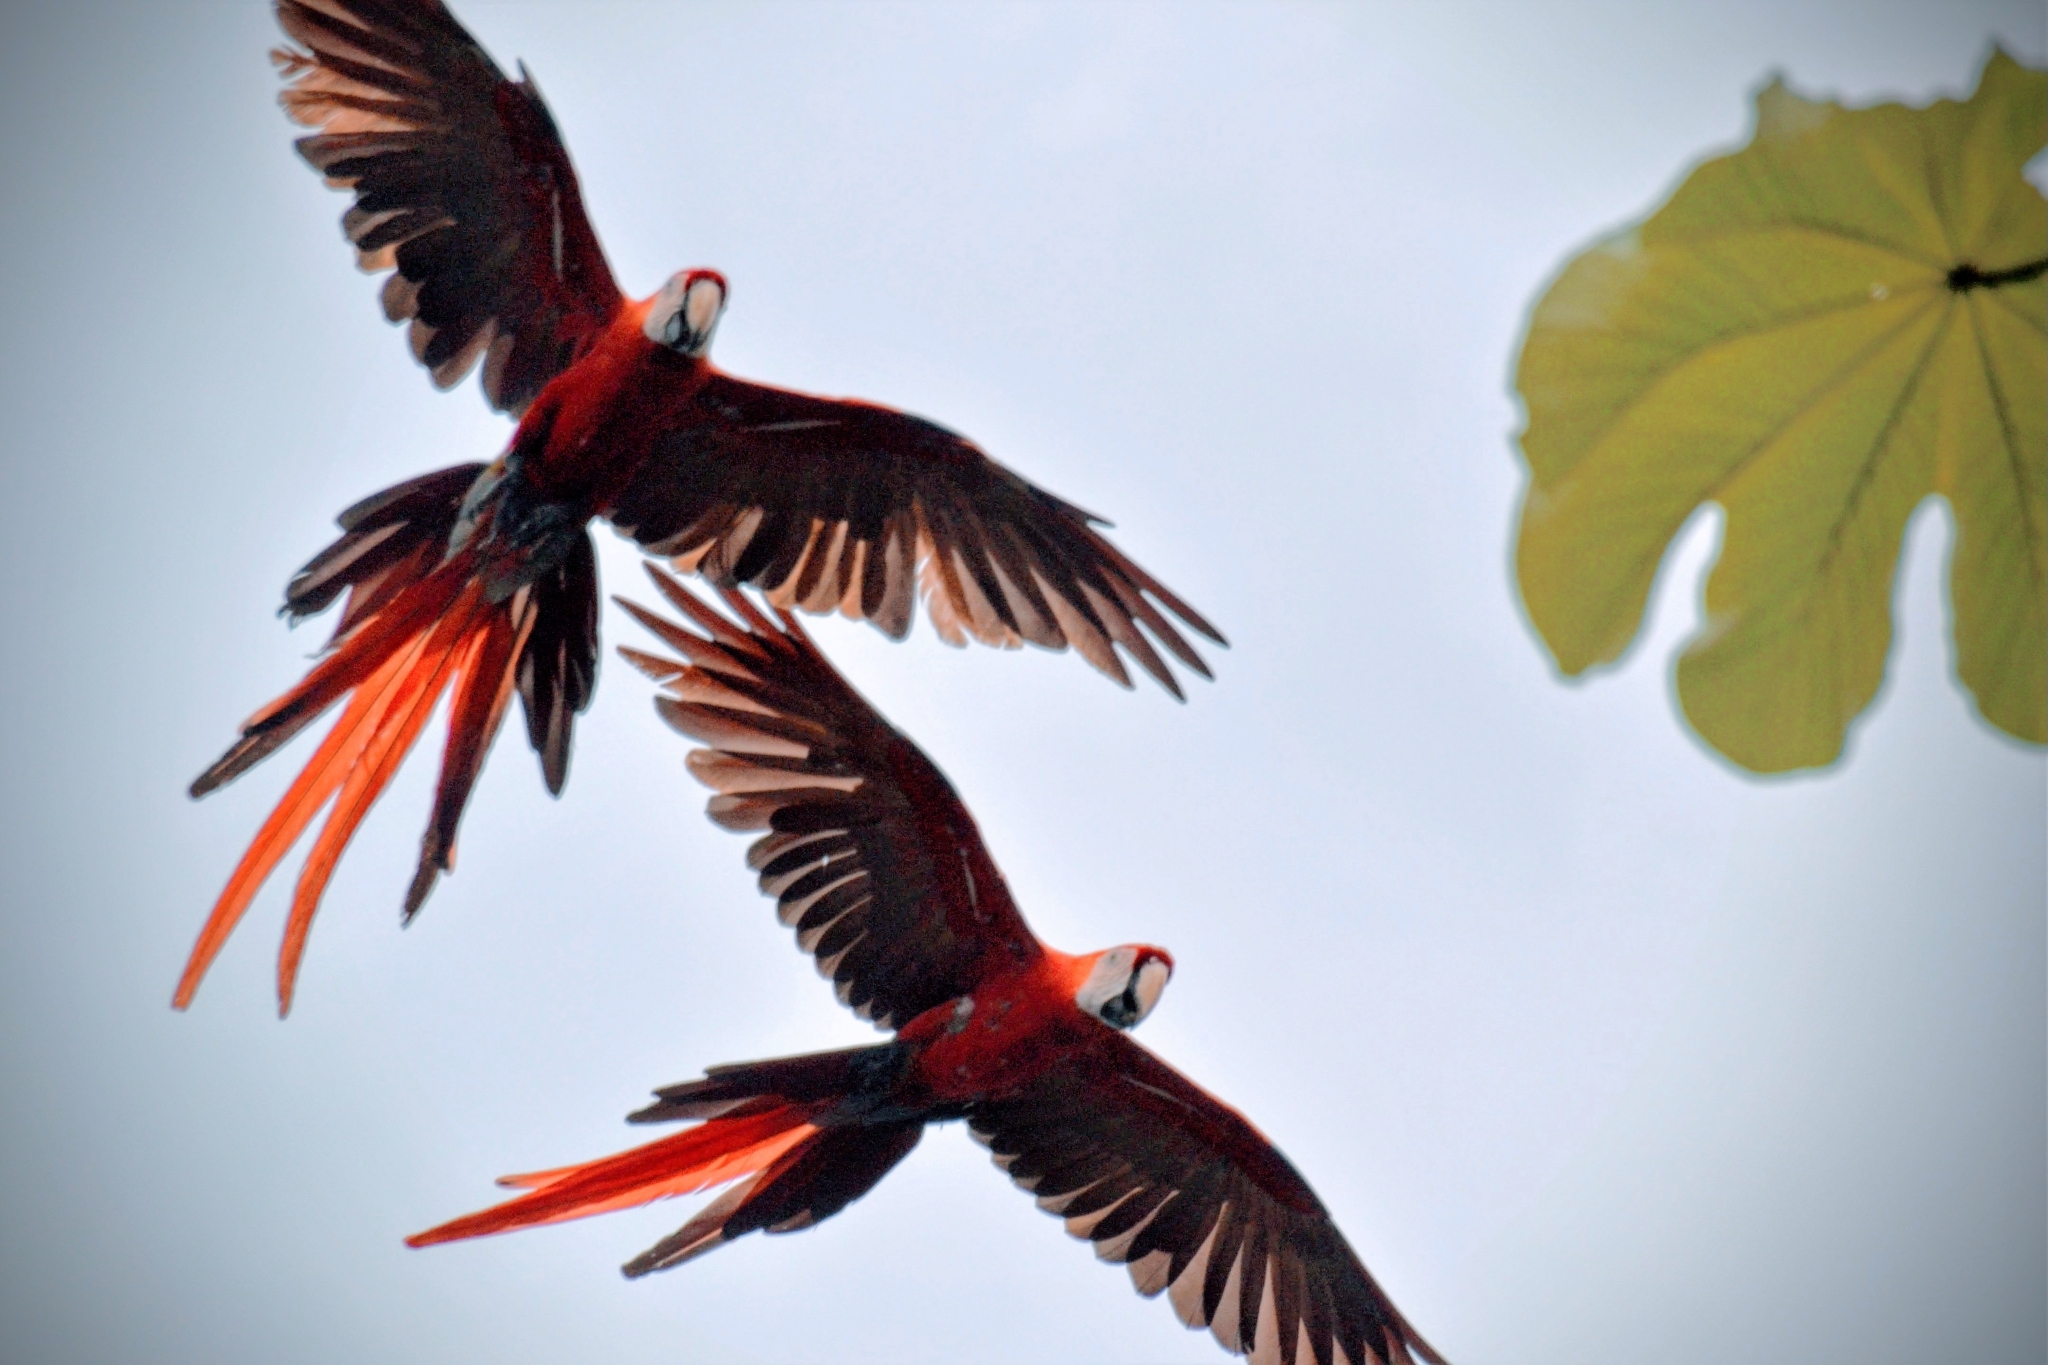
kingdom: Animalia
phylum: Chordata
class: Aves
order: Psittaciformes
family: Psittacidae
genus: Ara
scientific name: Ara macao
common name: Scarlet macaw
